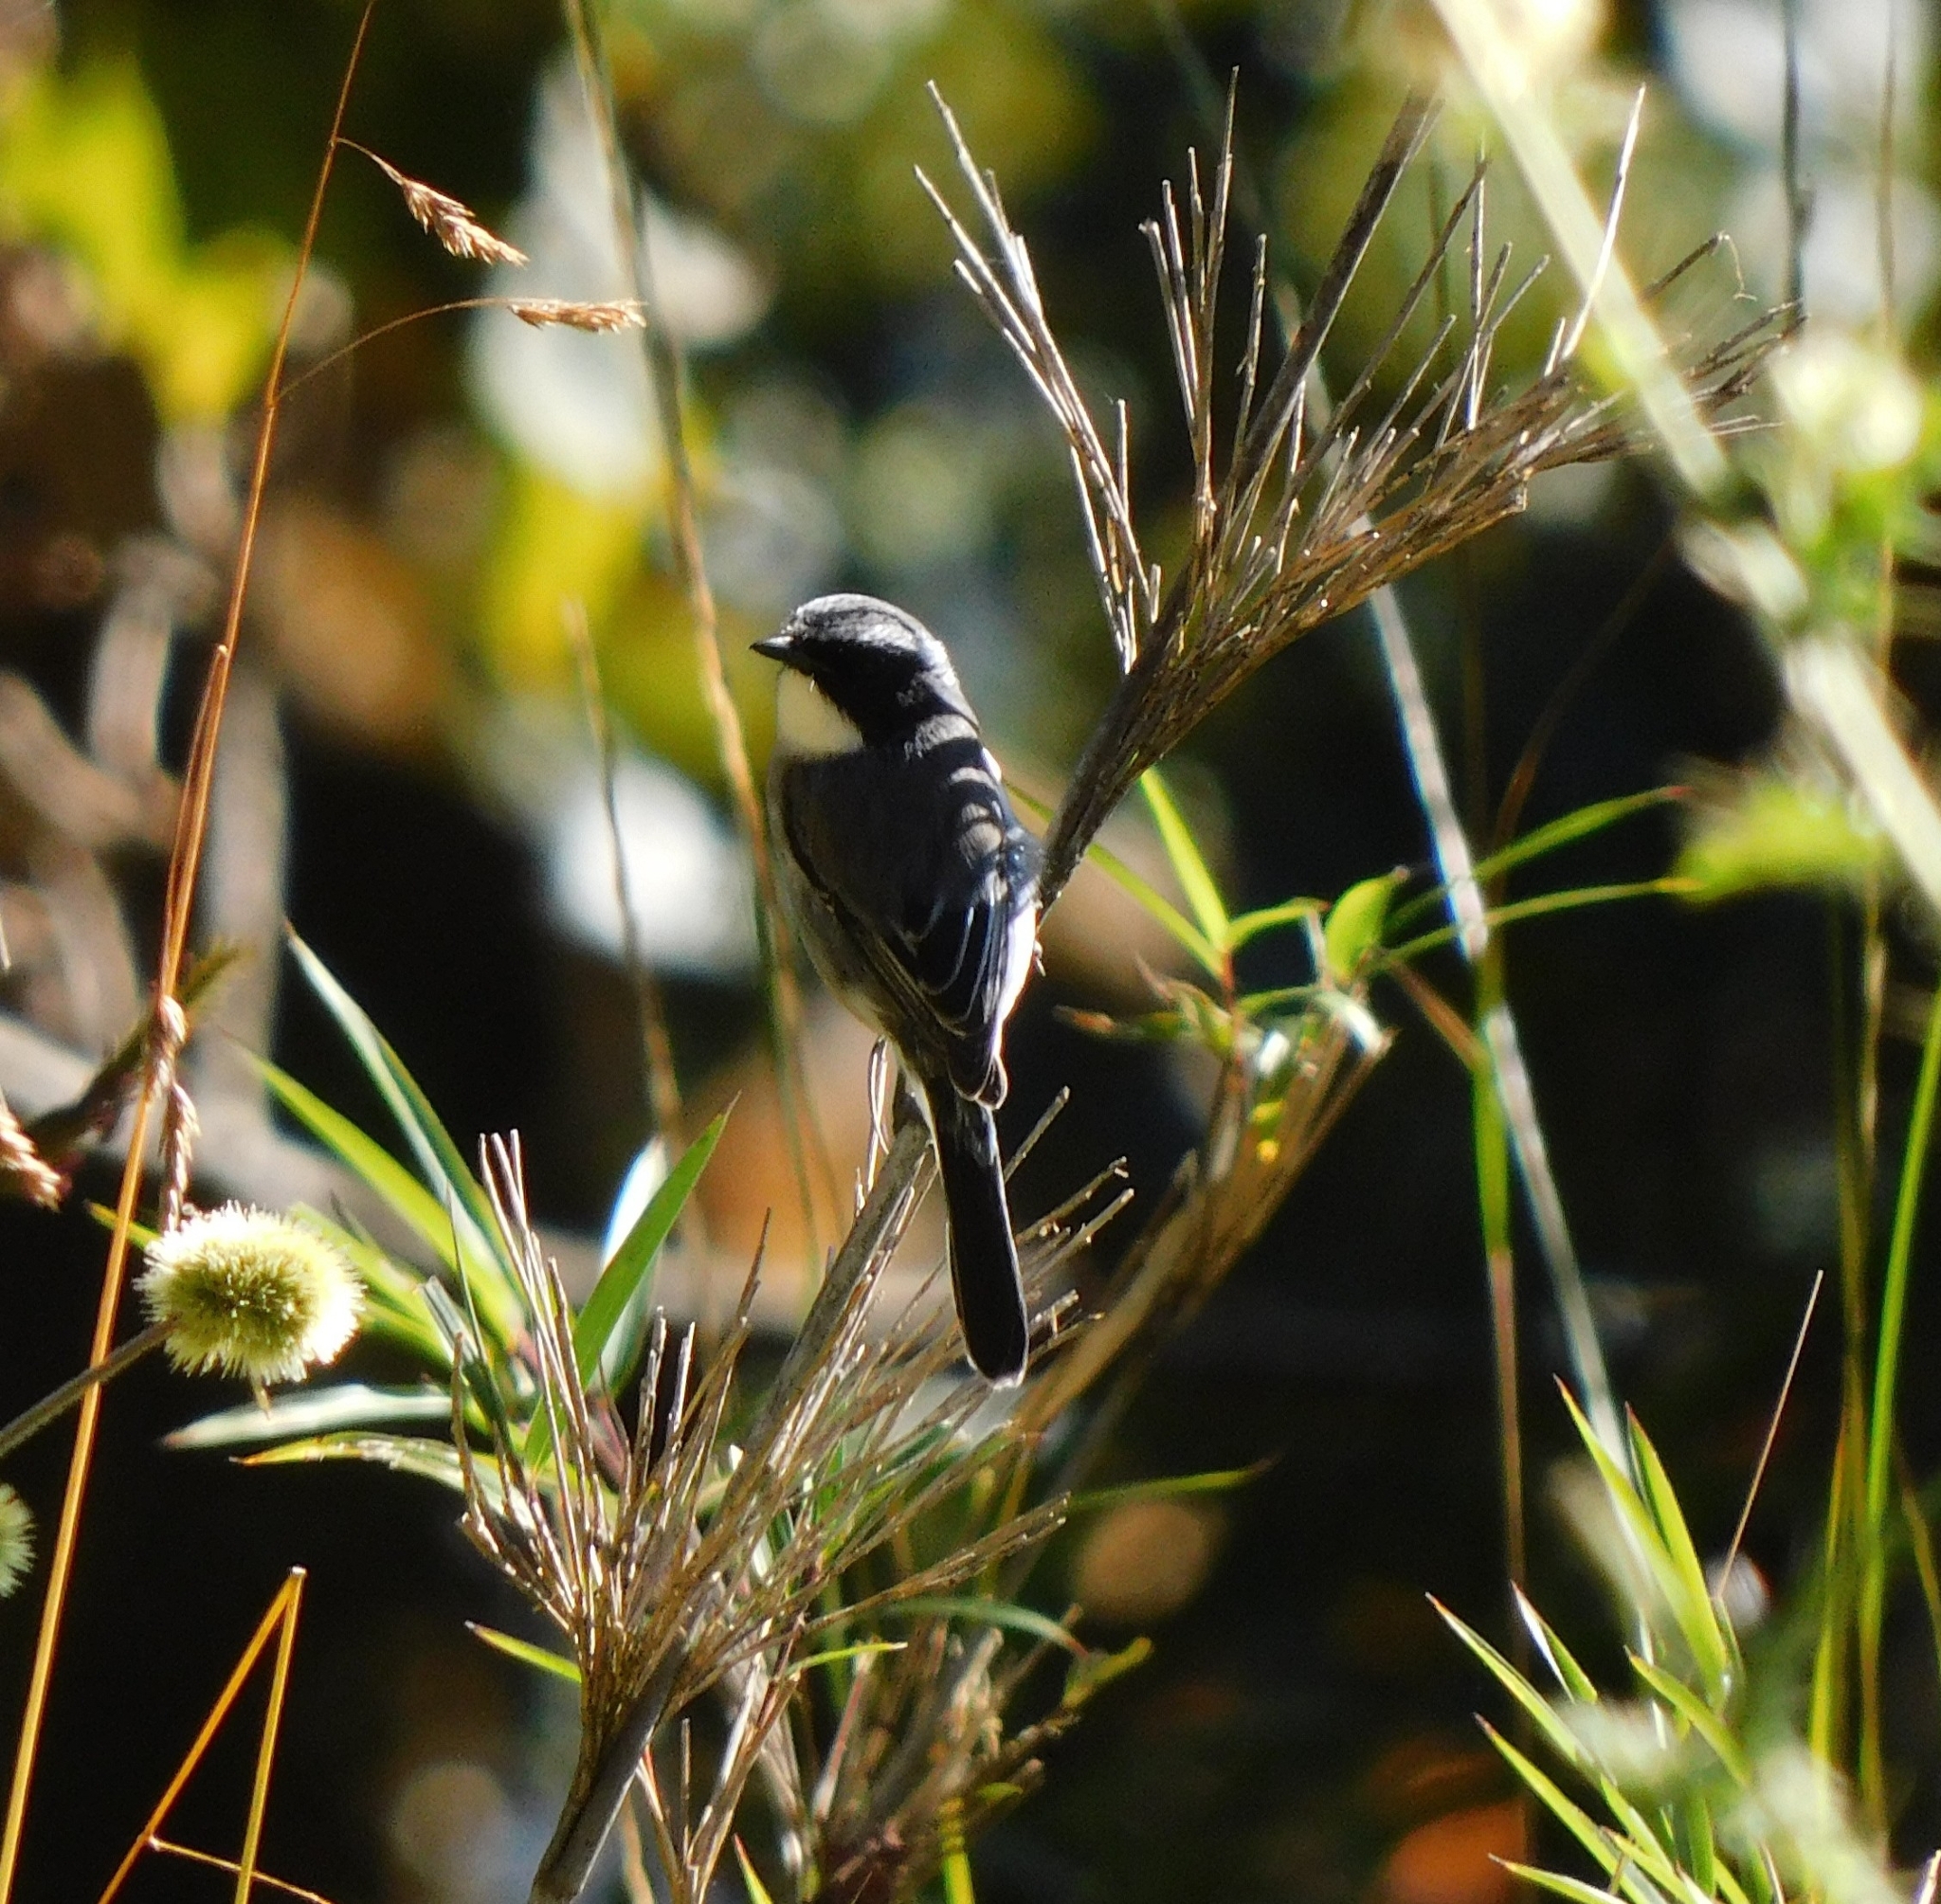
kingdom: Animalia
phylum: Chordata
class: Aves
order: Passeriformes
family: Muscicapidae
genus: Saxicola
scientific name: Saxicola ferreus
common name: Grey bush chat
